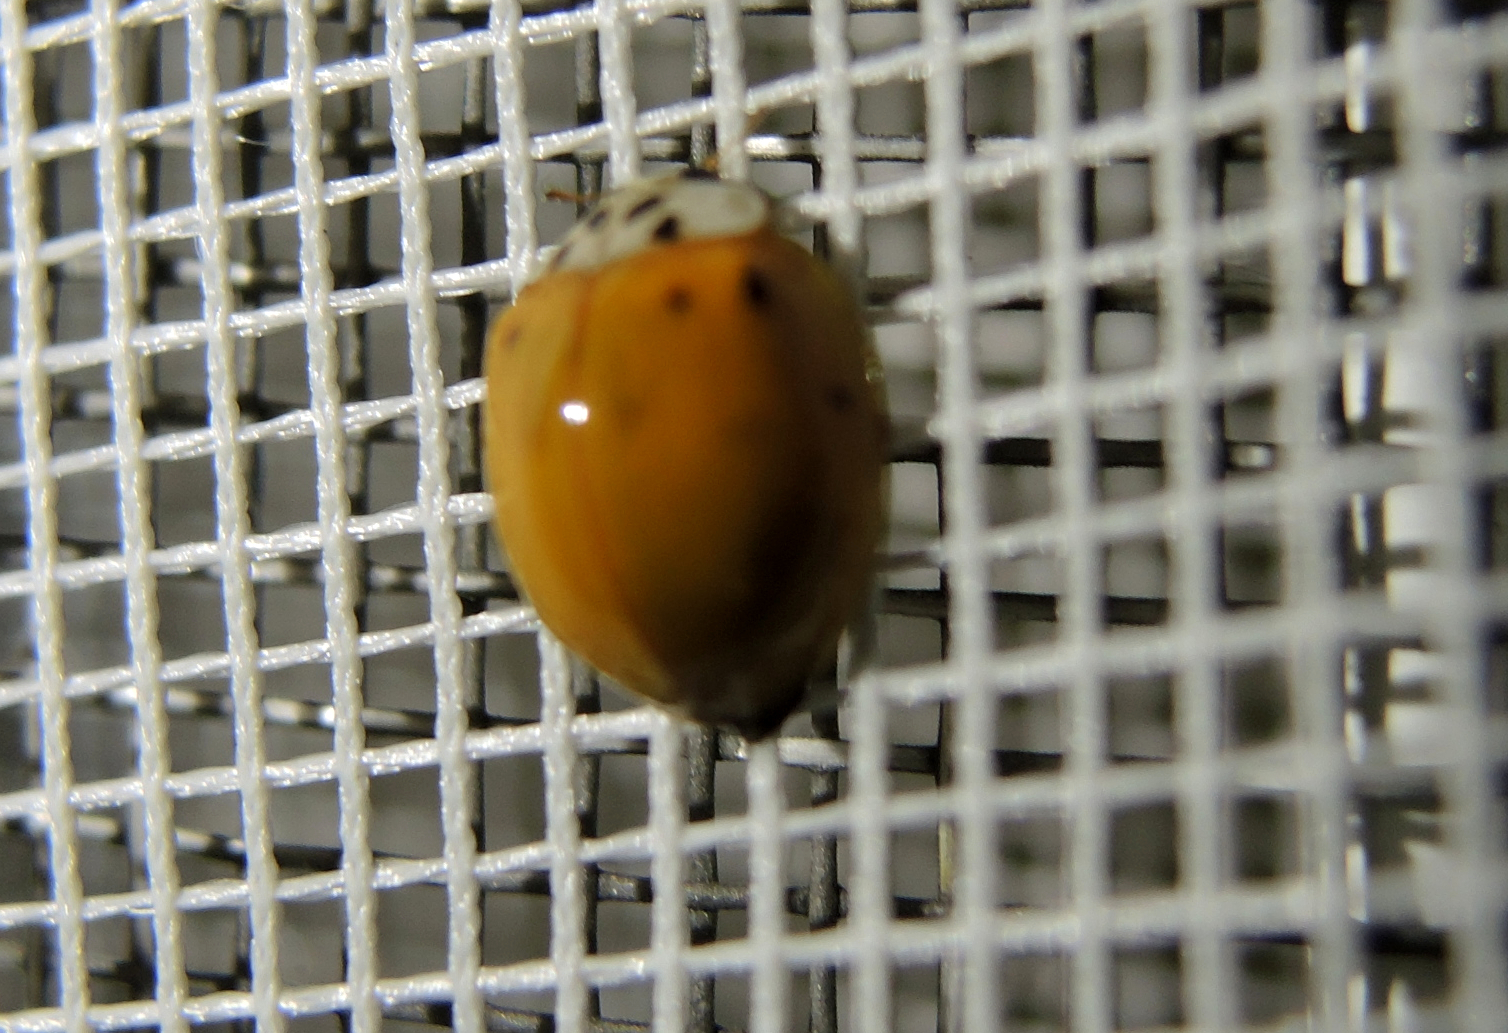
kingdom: Animalia
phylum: Arthropoda
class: Insecta
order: Coleoptera
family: Coccinellidae
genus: Harmonia
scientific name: Harmonia axyridis
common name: Harlequin ladybird
